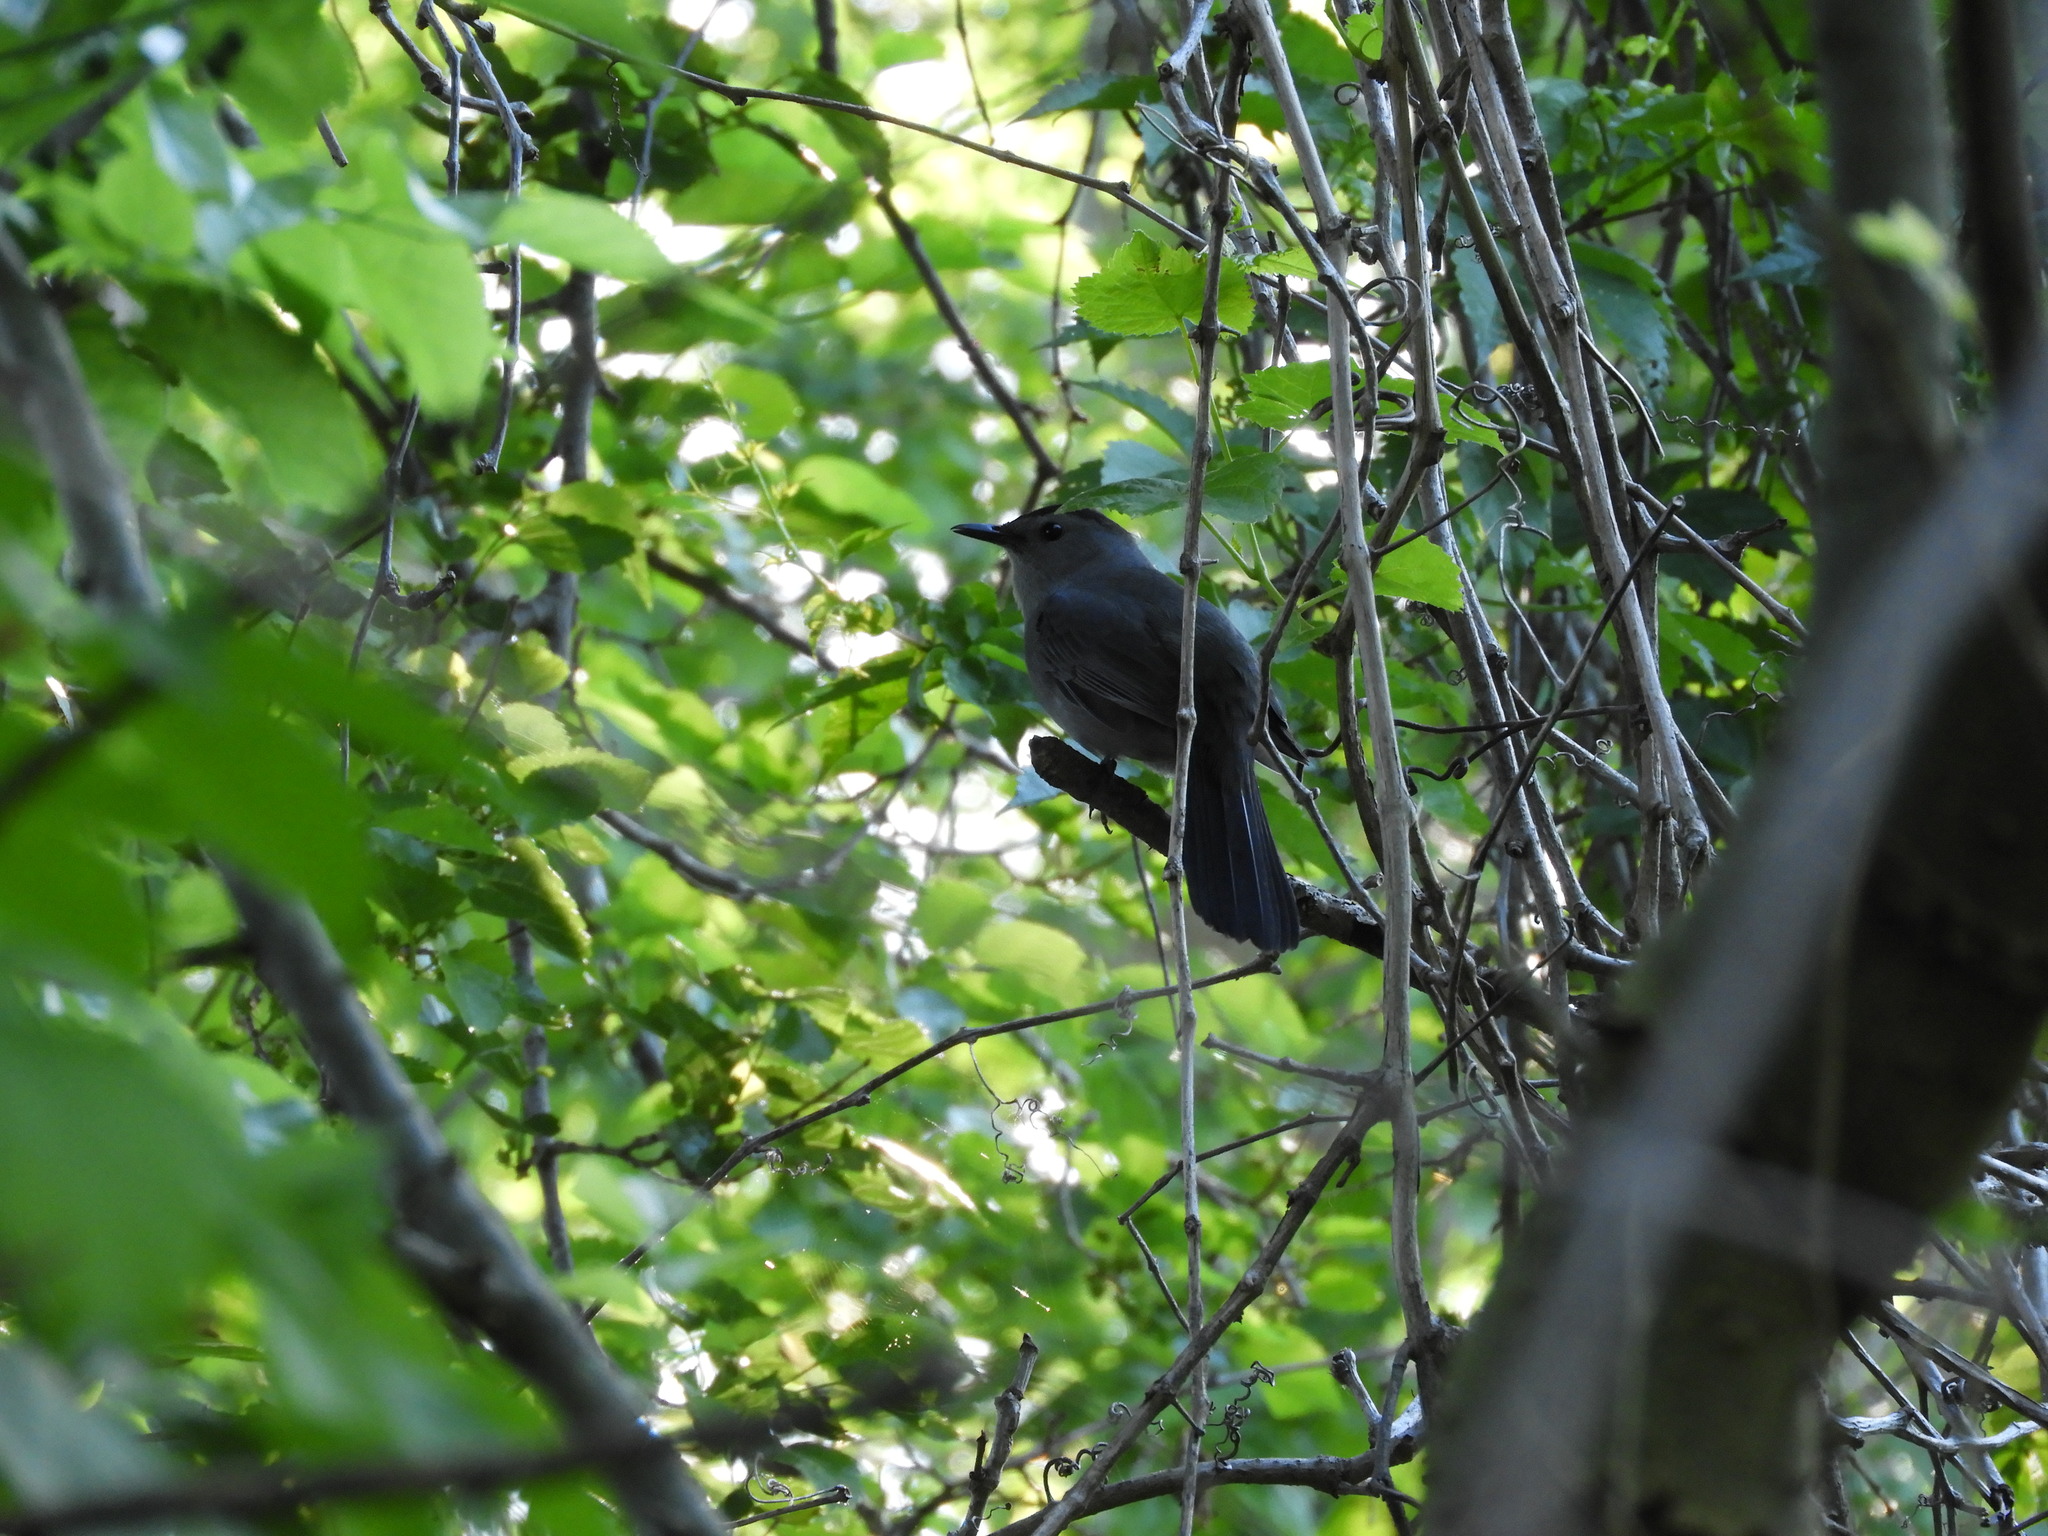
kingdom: Animalia
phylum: Chordata
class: Aves
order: Passeriformes
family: Mimidae
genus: Dumetella
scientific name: Dumetella carolinensis
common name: Gray catbird
